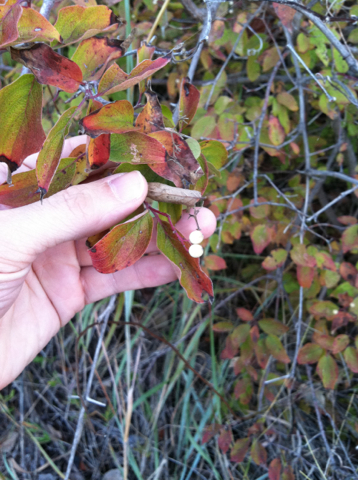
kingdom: Plantae
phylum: Tracheophyta
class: Magnoliopsida
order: Cornales
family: Cornaceae
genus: Cornus
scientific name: Cornus drummondii
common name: Rough-leaf dogwood
